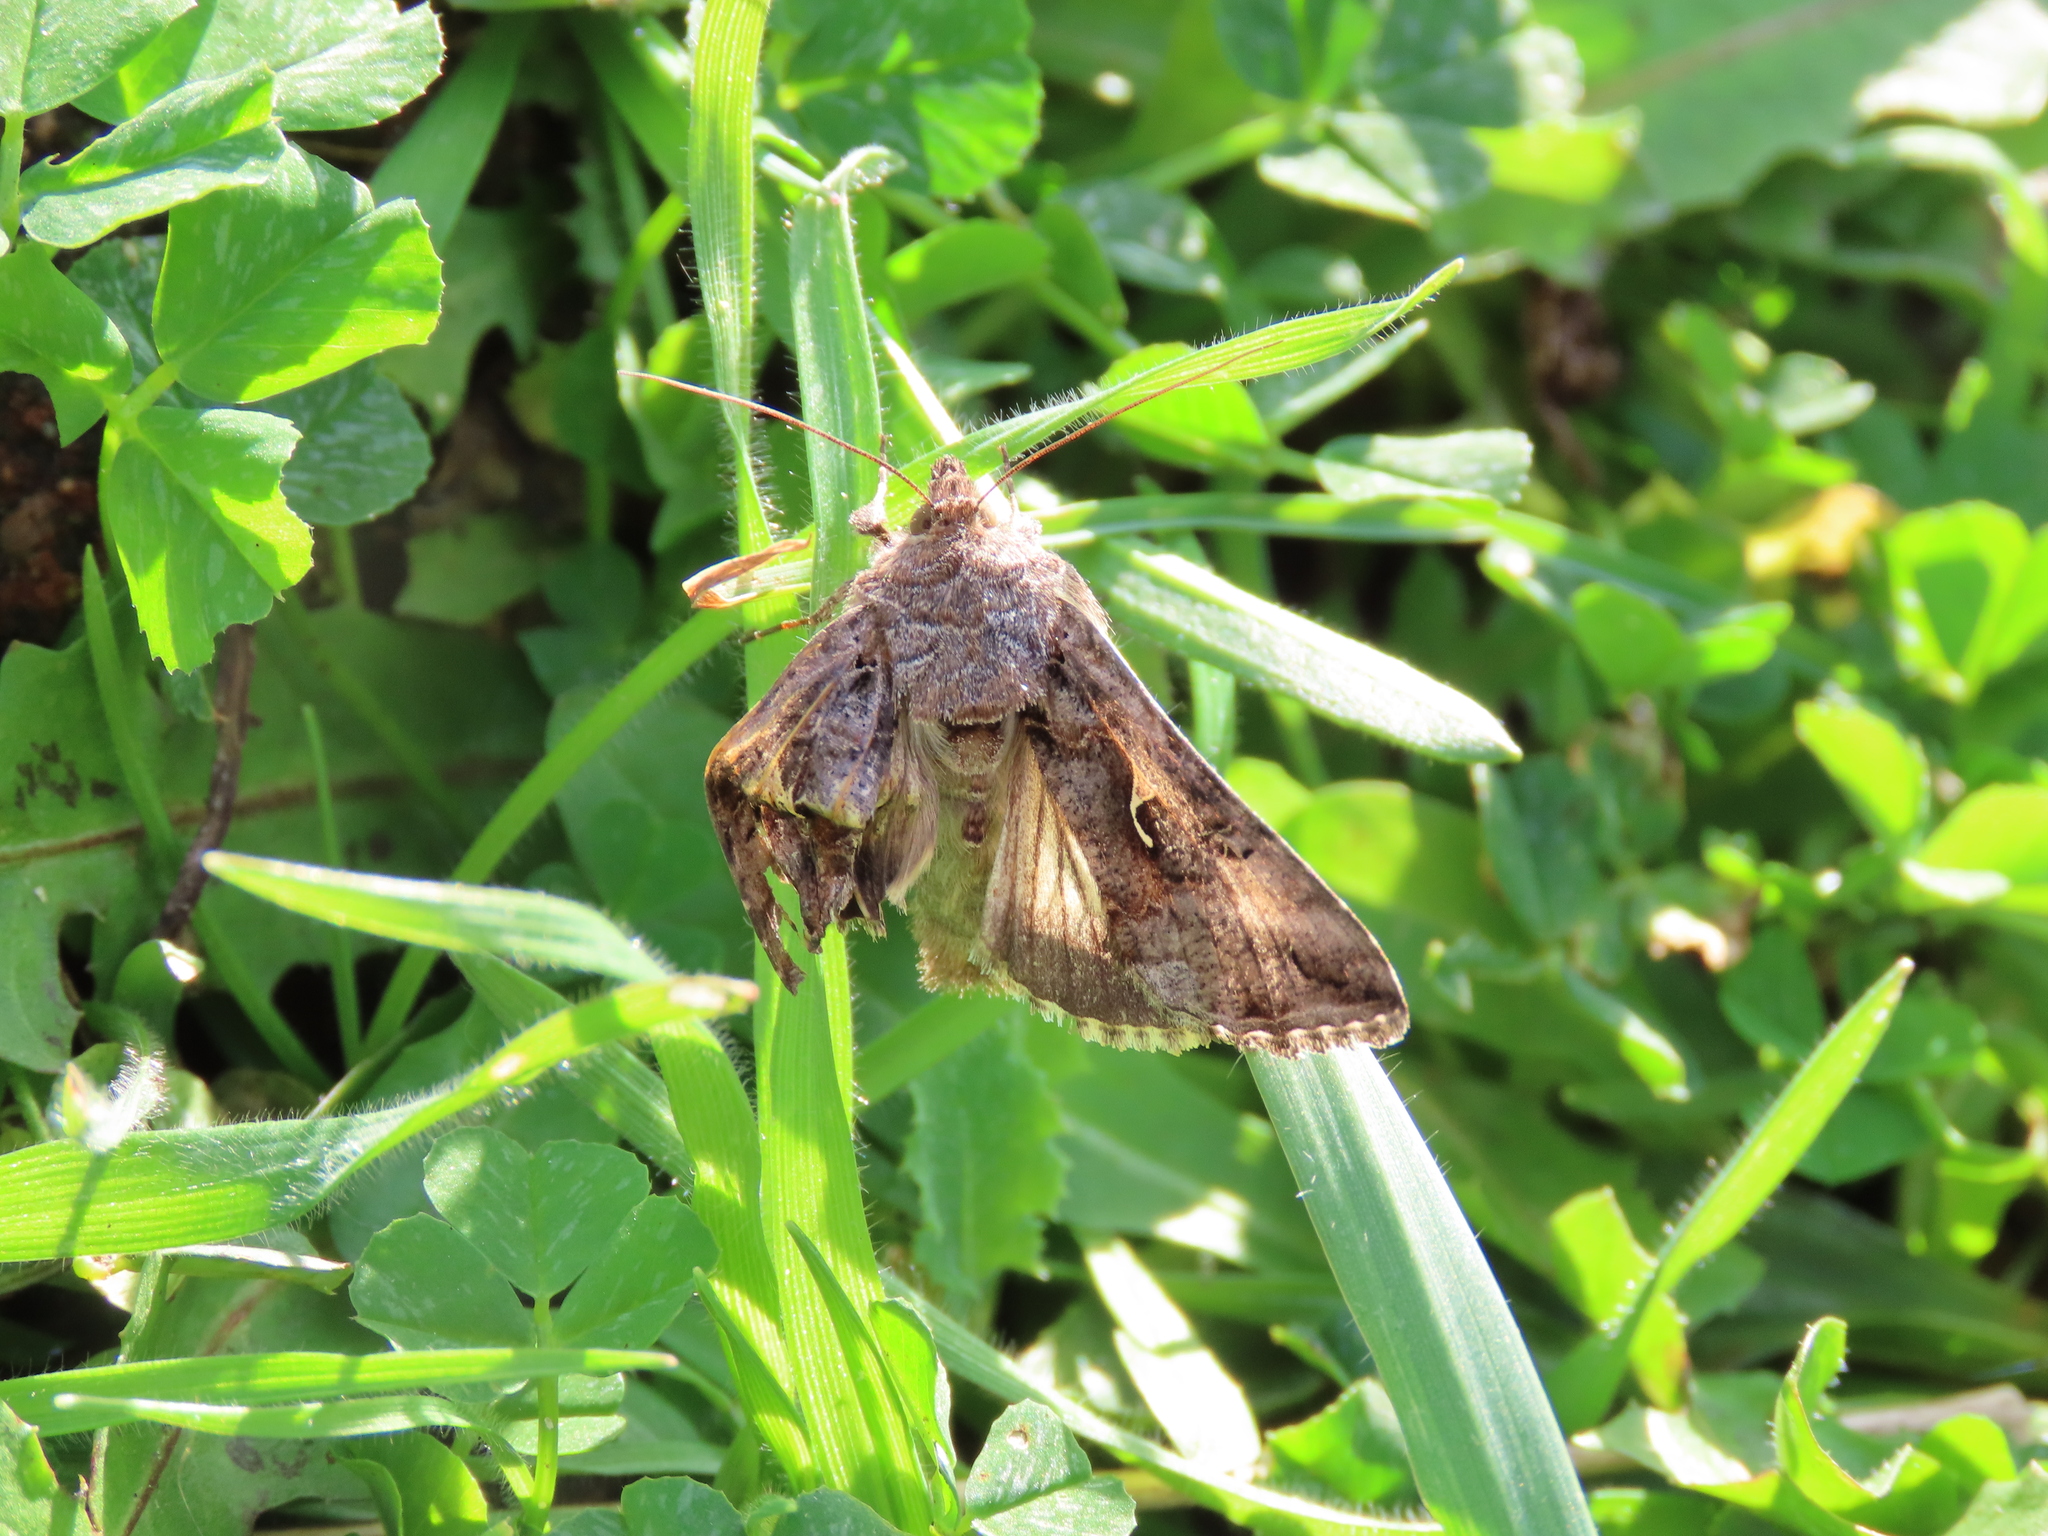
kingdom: Animalia
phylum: Arthropoda
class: Insecta
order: Lepidoptera
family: Noctuidae
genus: Autographa
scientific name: Autographa gamma
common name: Silver y
